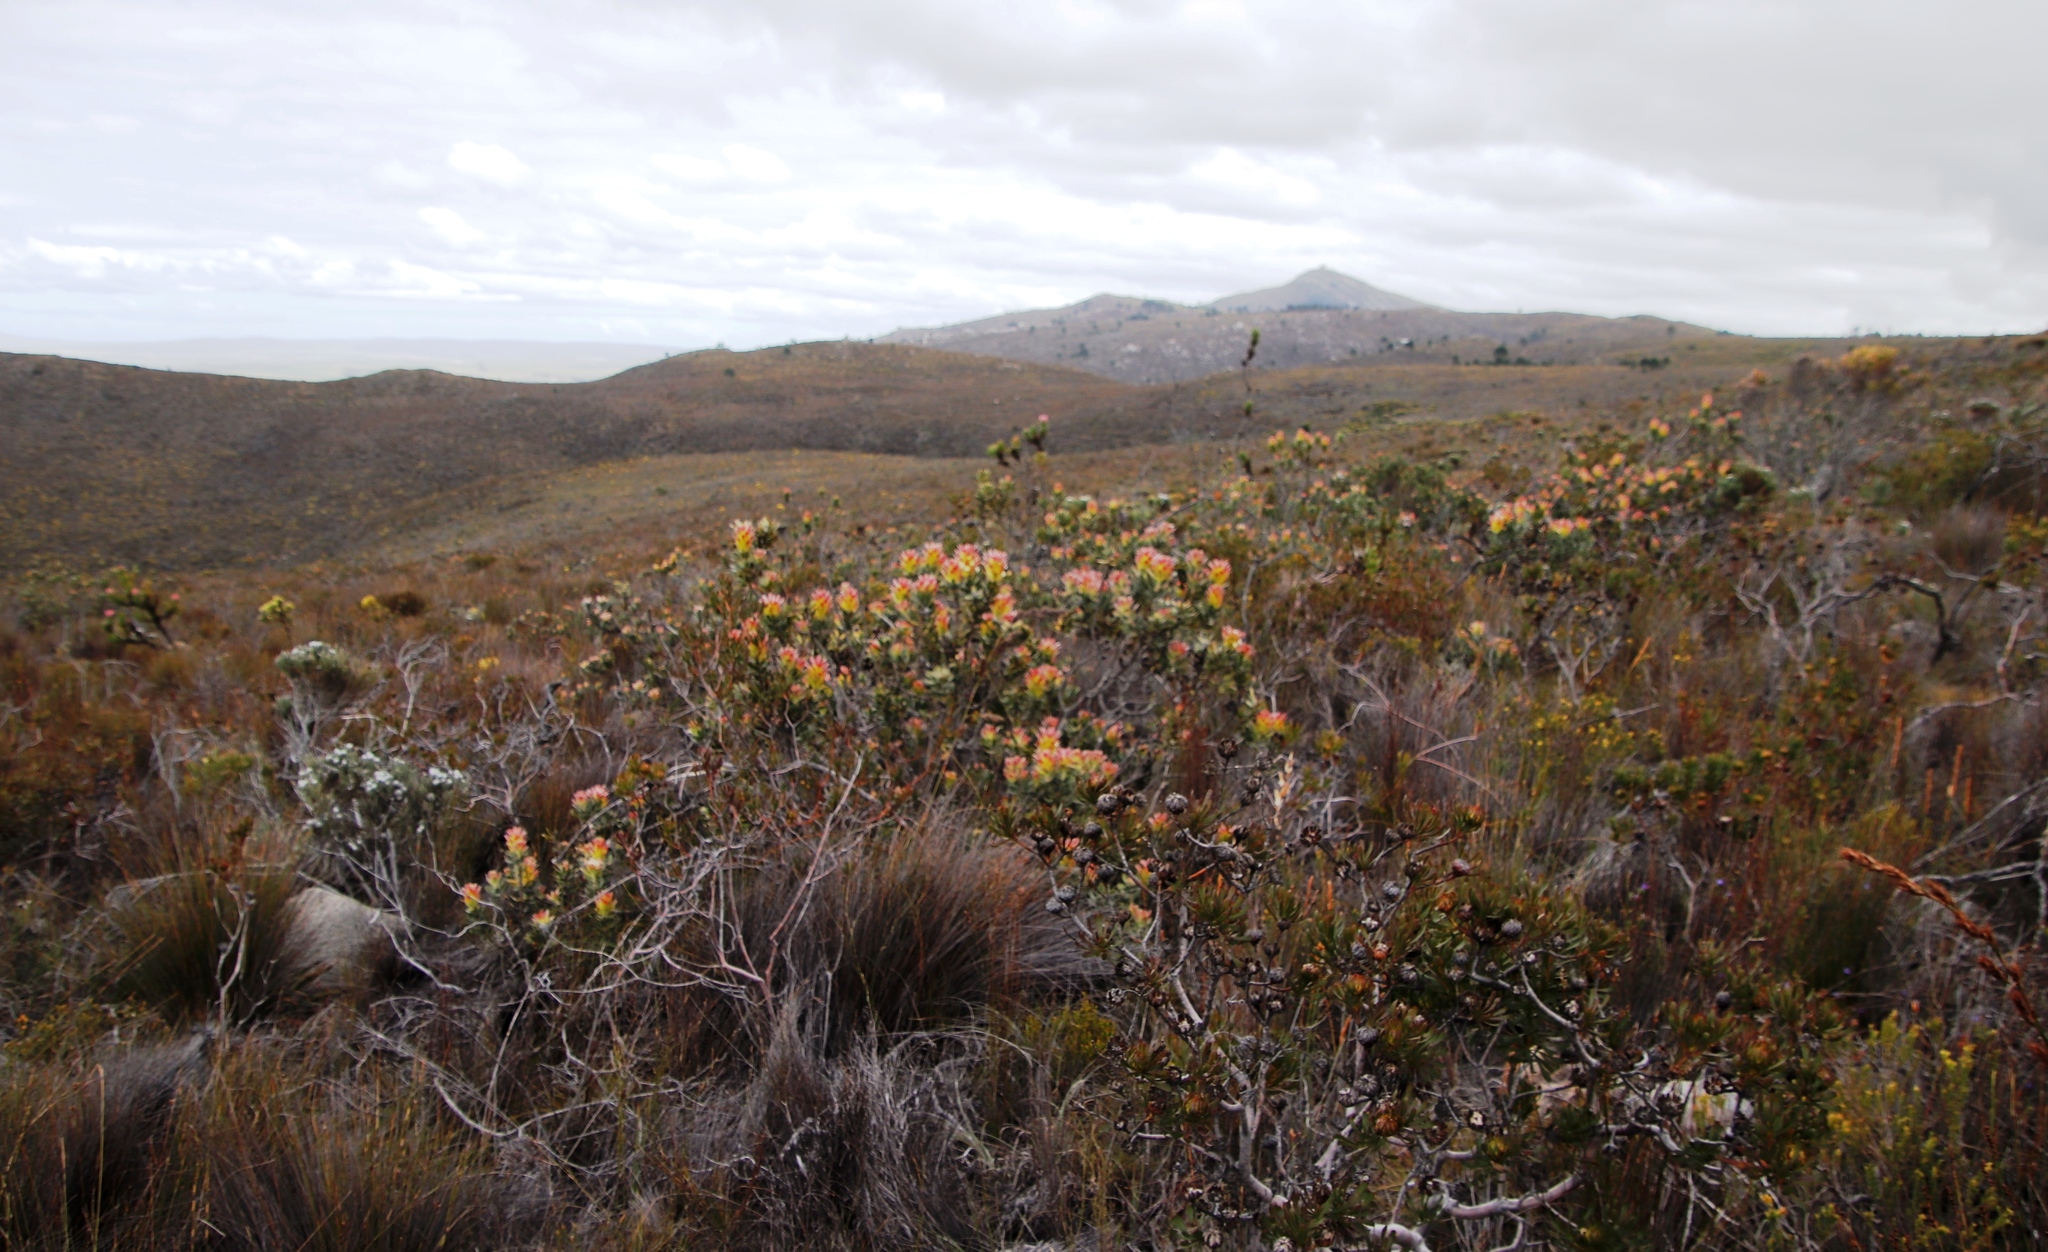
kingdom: Plantae
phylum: Tracheophyta
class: Magnoliopsida
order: Proteales
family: Proteaceae
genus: Mimetes
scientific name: Mimetes cucullatus
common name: Common pagoda
